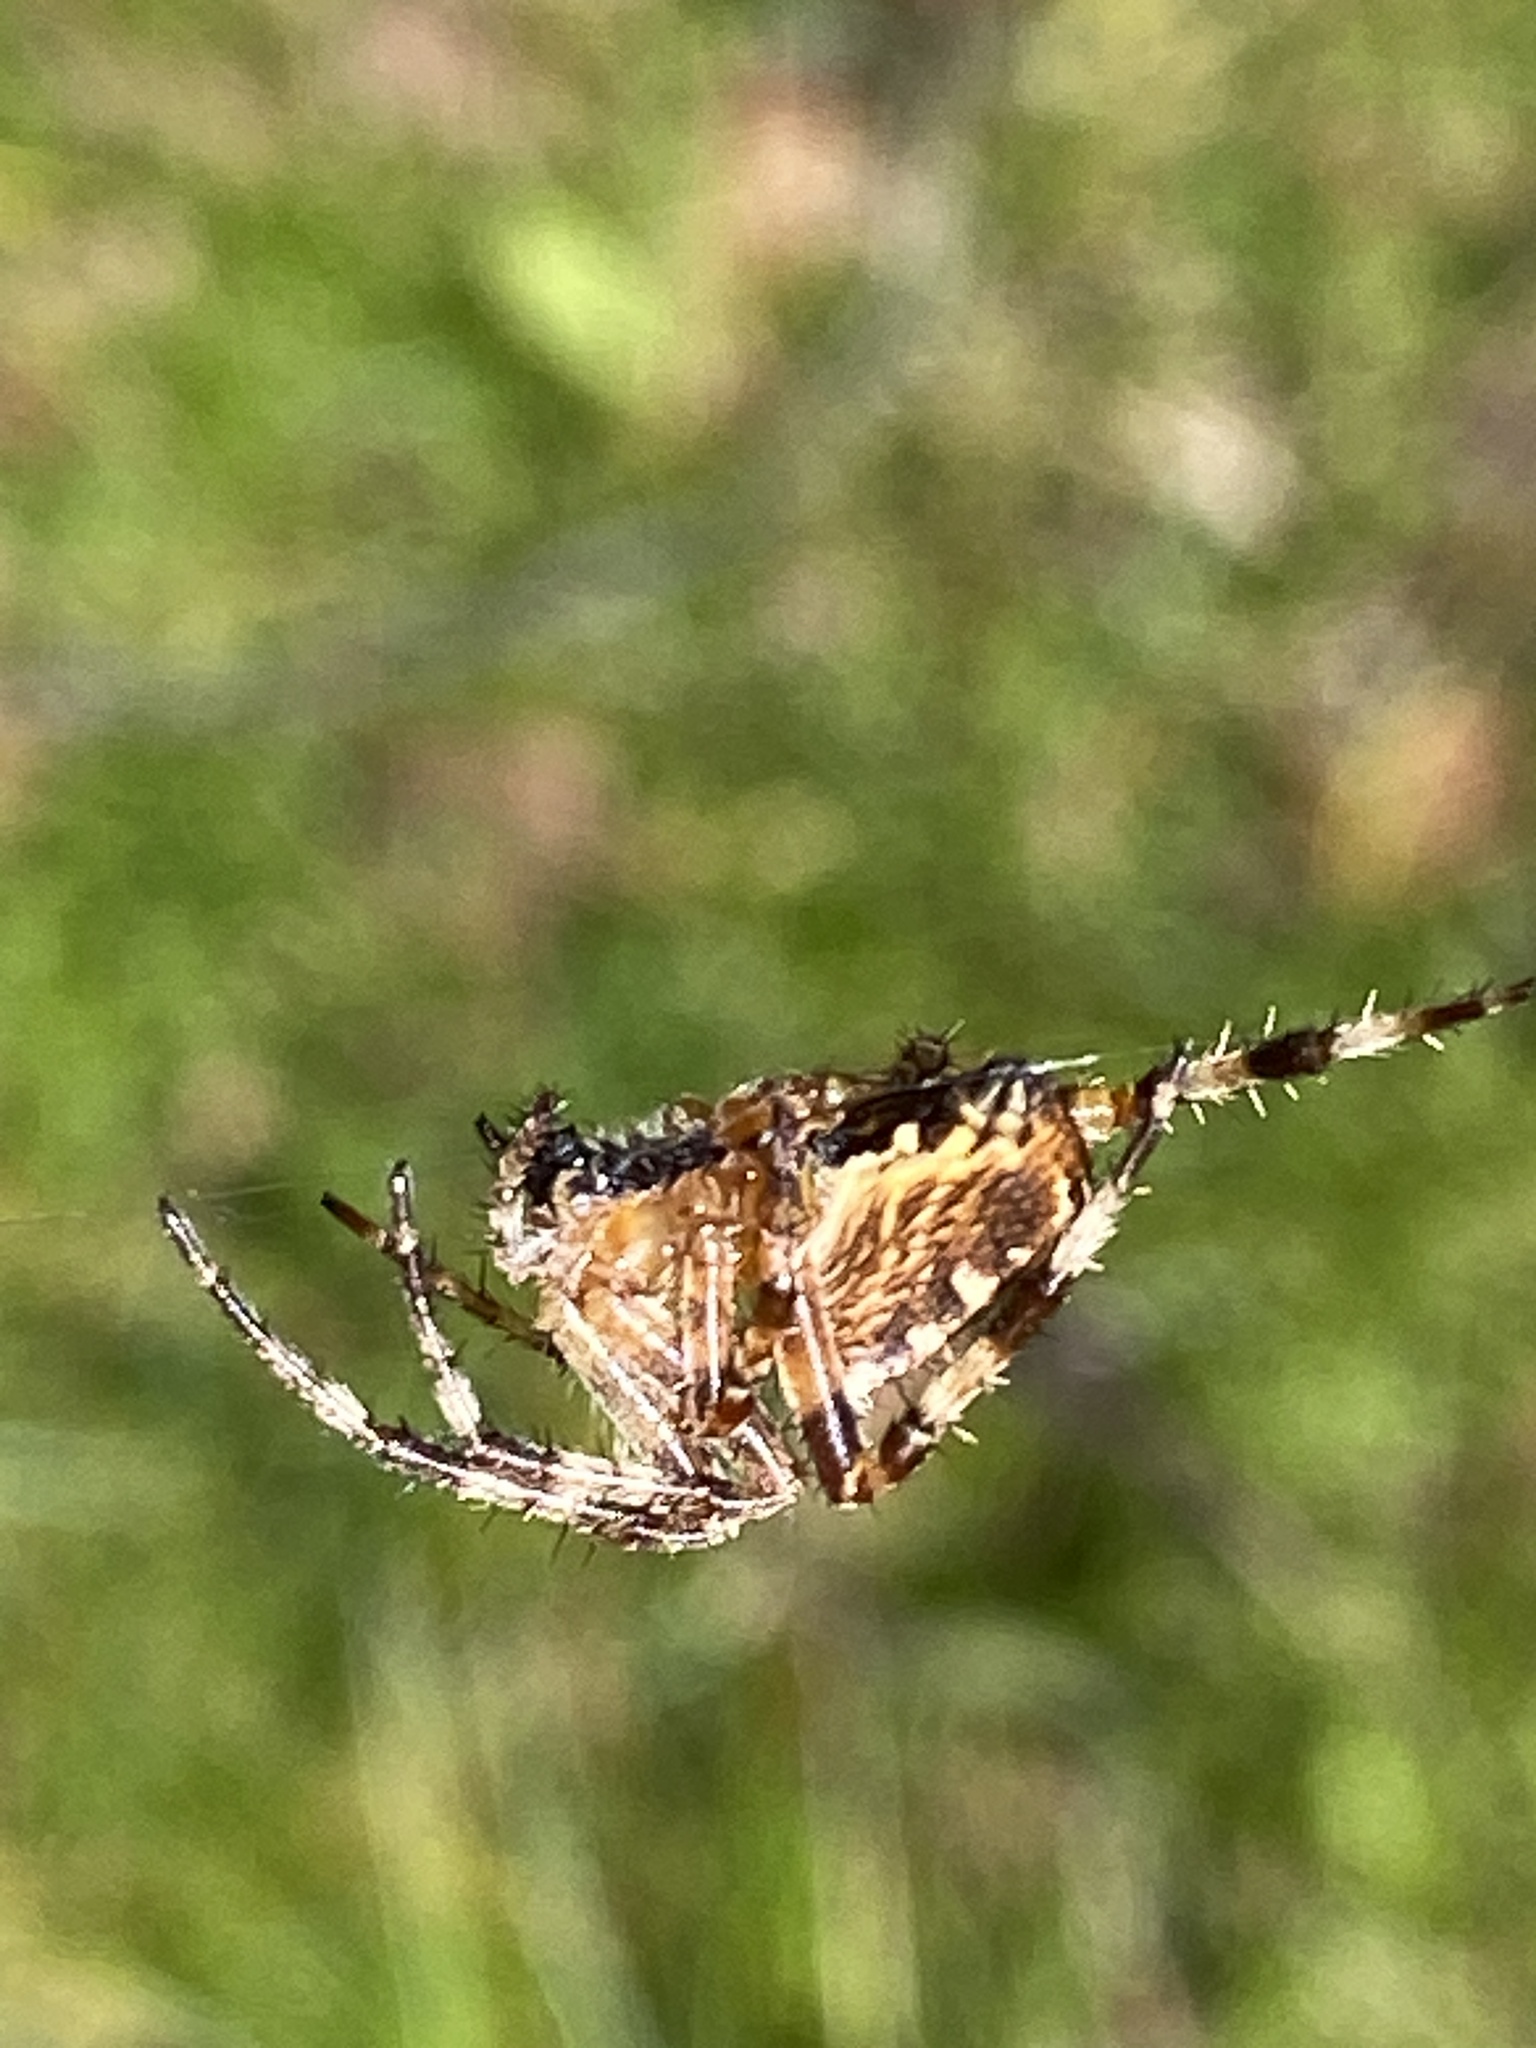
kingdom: Animalia
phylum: Arthropoda
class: Arachnida
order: Araneae
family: Araneidae
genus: Araneus
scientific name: Araneus diadematus
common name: Cross orbweaver
